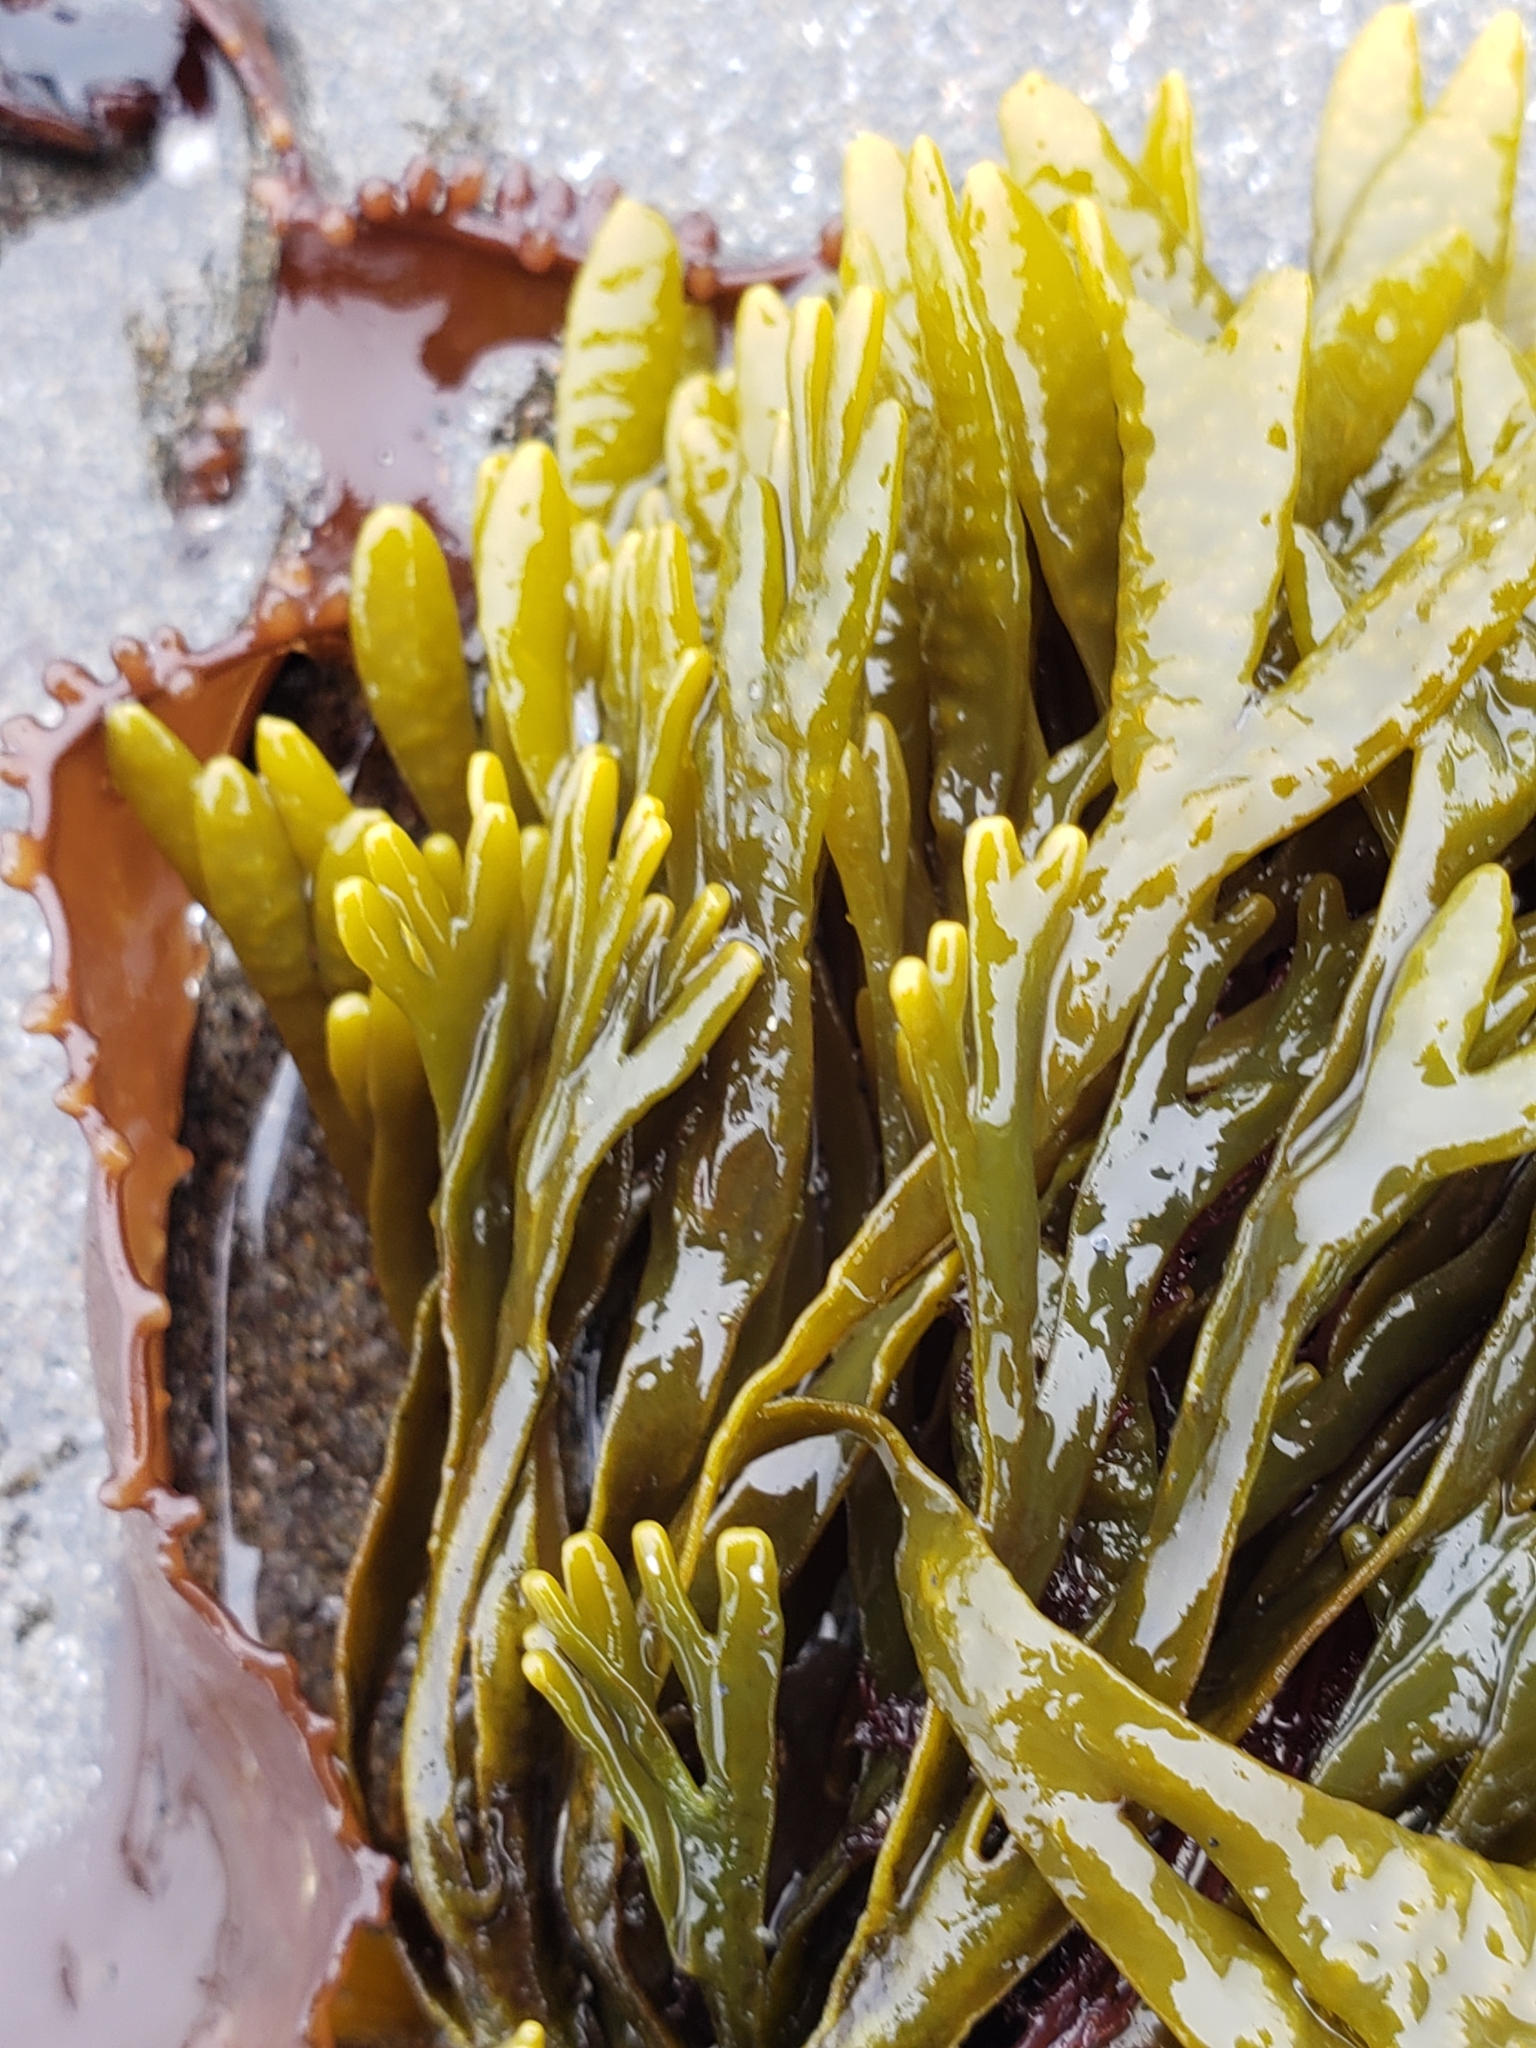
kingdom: Chromista
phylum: Ochrophyta
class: Phaeophyceae
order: Fucales
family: Fucaceae
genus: Pelvetiopsis
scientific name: Pelvetiopsis limitata
